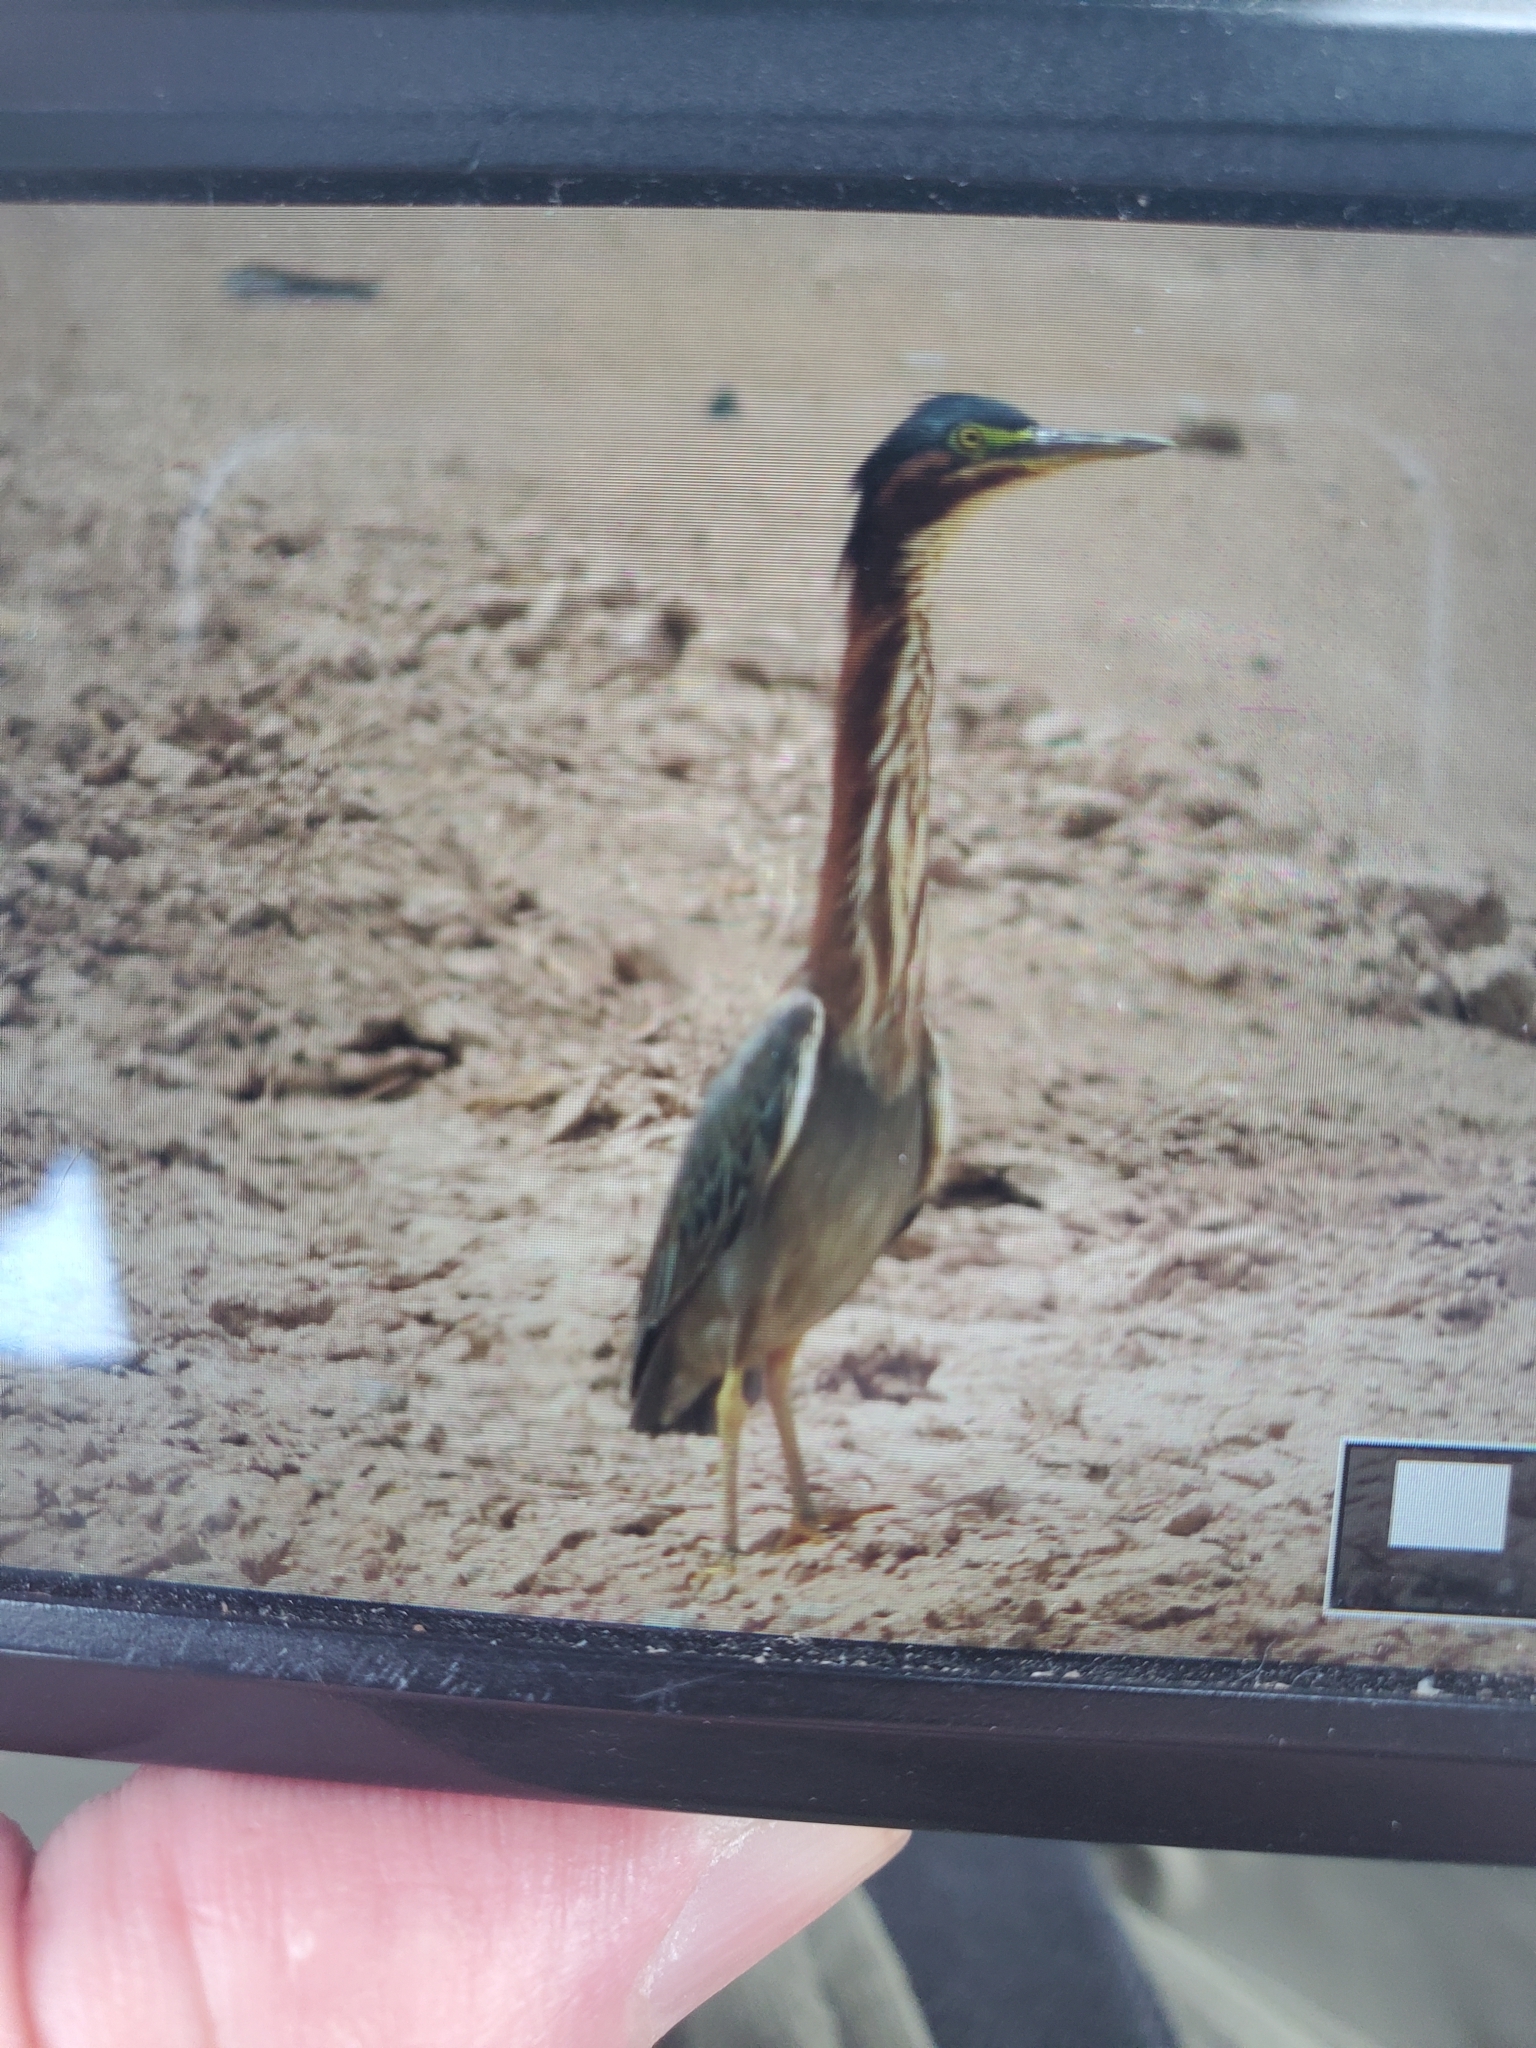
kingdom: Animalia
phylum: Chordata
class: Aves
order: Pelecaniformes
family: Ardeidae
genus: Butorides
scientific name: Butorides virescens
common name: Green heron
